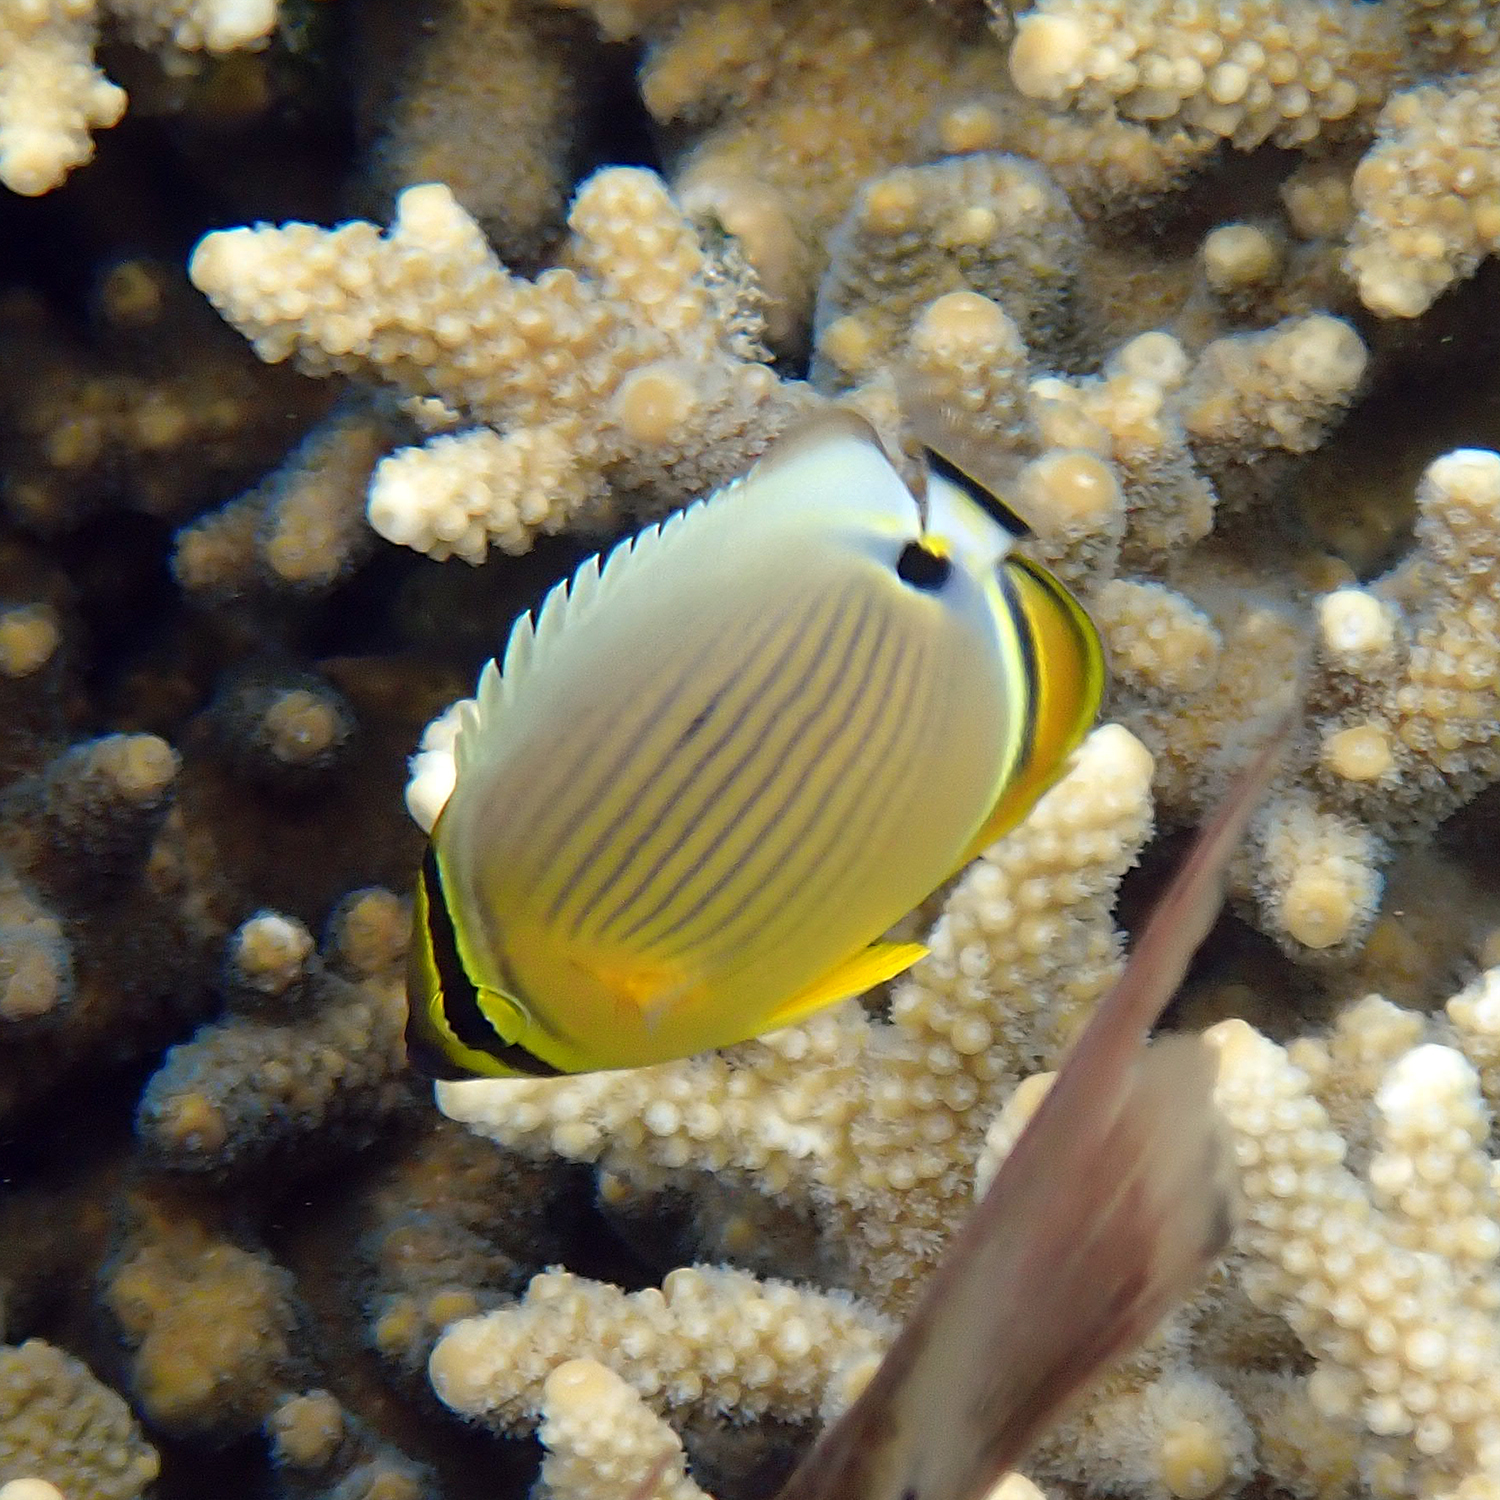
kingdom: Animalia
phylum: Chordata
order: Perciformes
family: Chaetodontidae
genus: Chaetodon
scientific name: Chaetodon lunulatus
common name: Redfin butterflyfish
